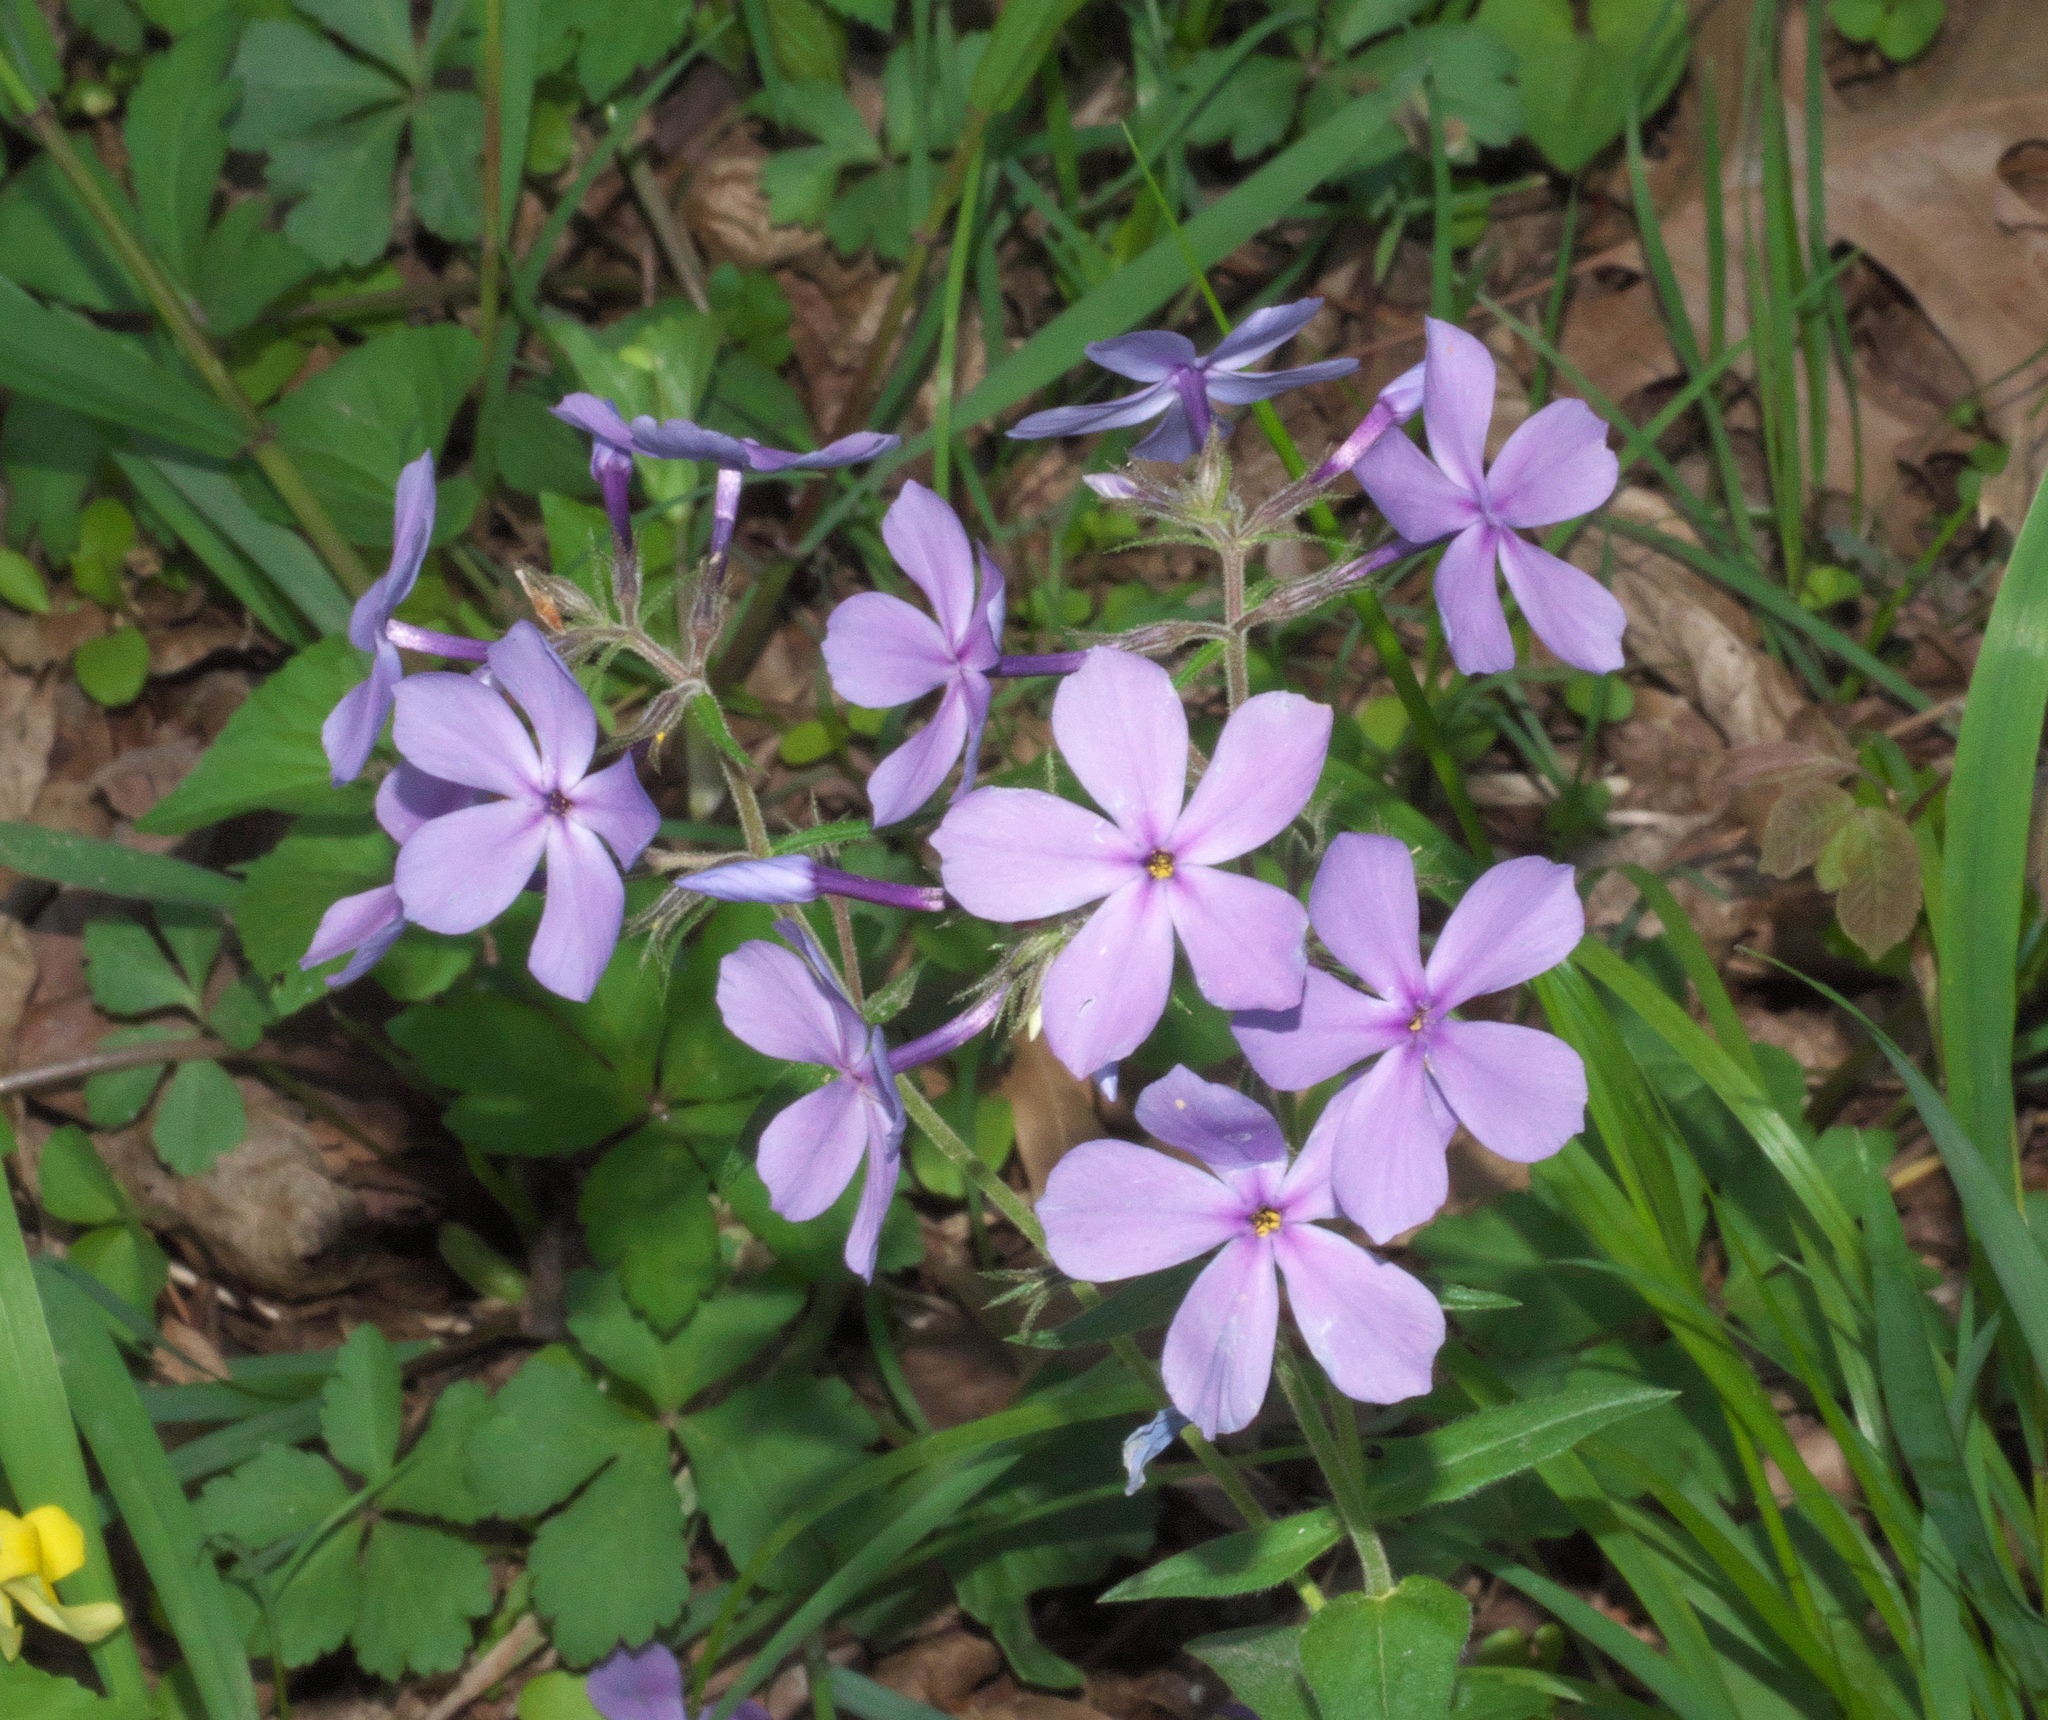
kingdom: Plantae
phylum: Tracheophyta
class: Magnoliopsida
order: Ericales
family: Polemoniaceae
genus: Phlox
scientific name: Phlox divaricata
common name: Blue phlox
